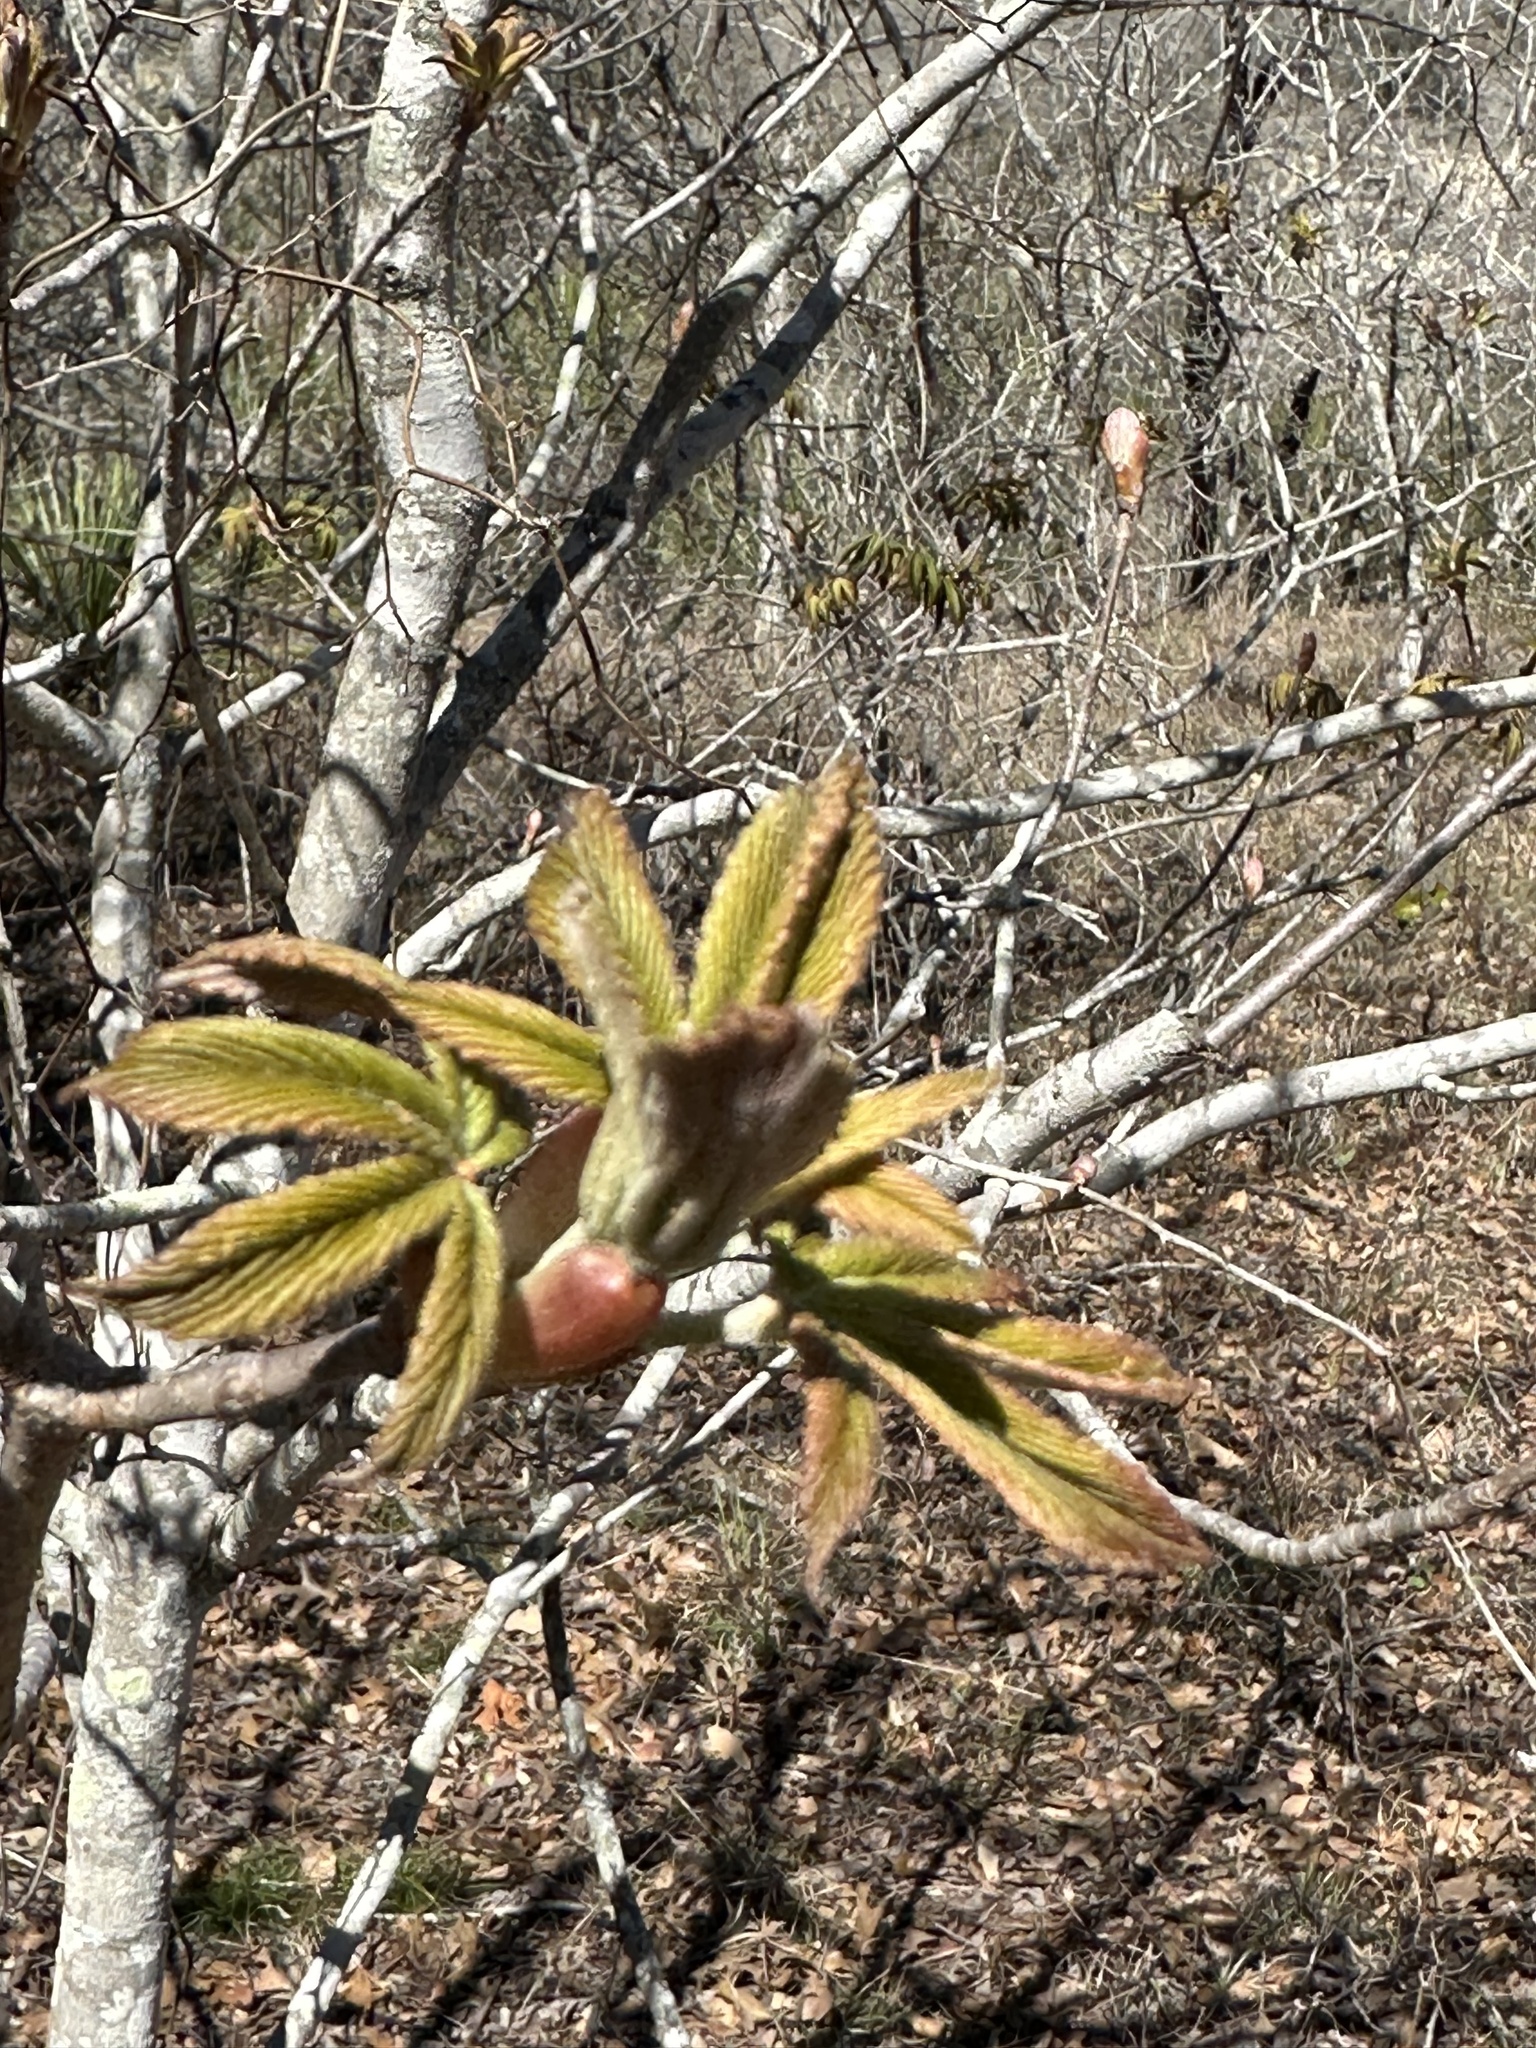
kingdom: Plantae
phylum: Tracheophyta
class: Magnoliopsida
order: Sapindales
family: Sapindaceae
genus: Aesculus
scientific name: Aesculus pavia
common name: Red buckeye
